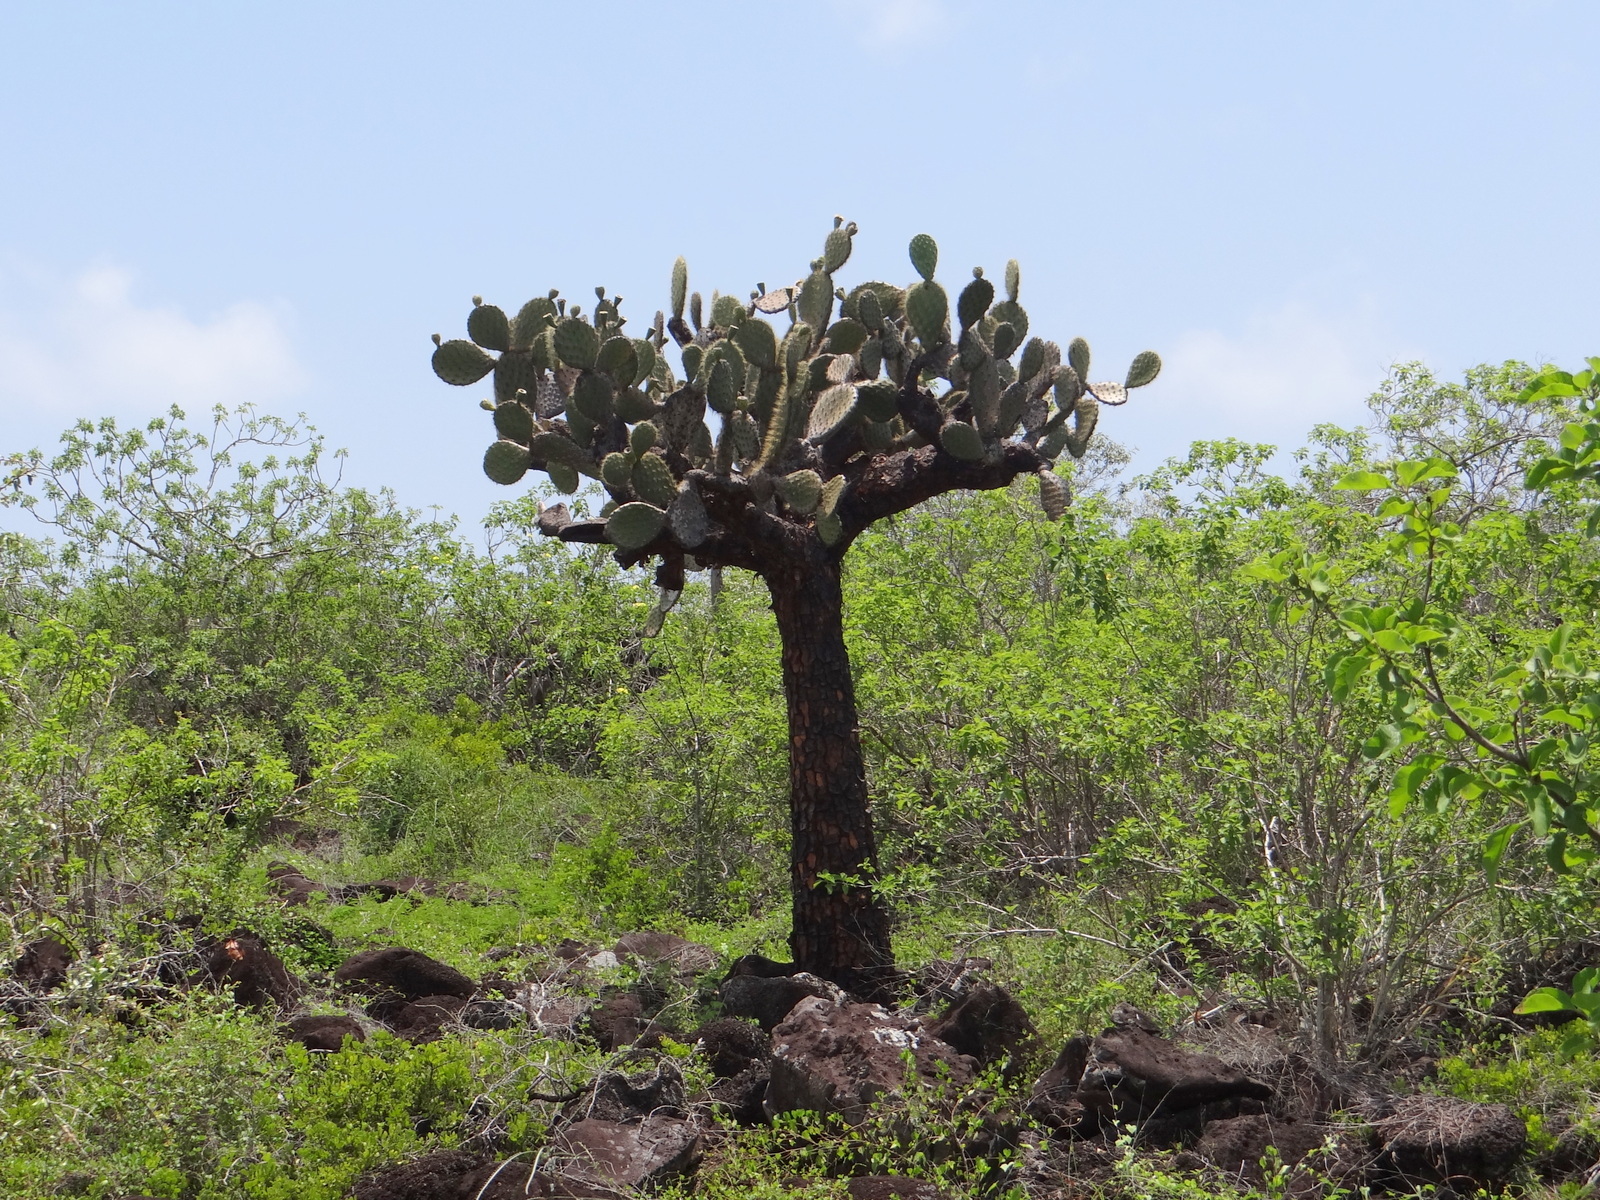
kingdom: Plantae
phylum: Tracheophyta
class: Magnoliopsida
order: Caryophyllales
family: Cactaceae
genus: Opuntia
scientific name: Opuntia galapageia
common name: Galápagos prickly pear
